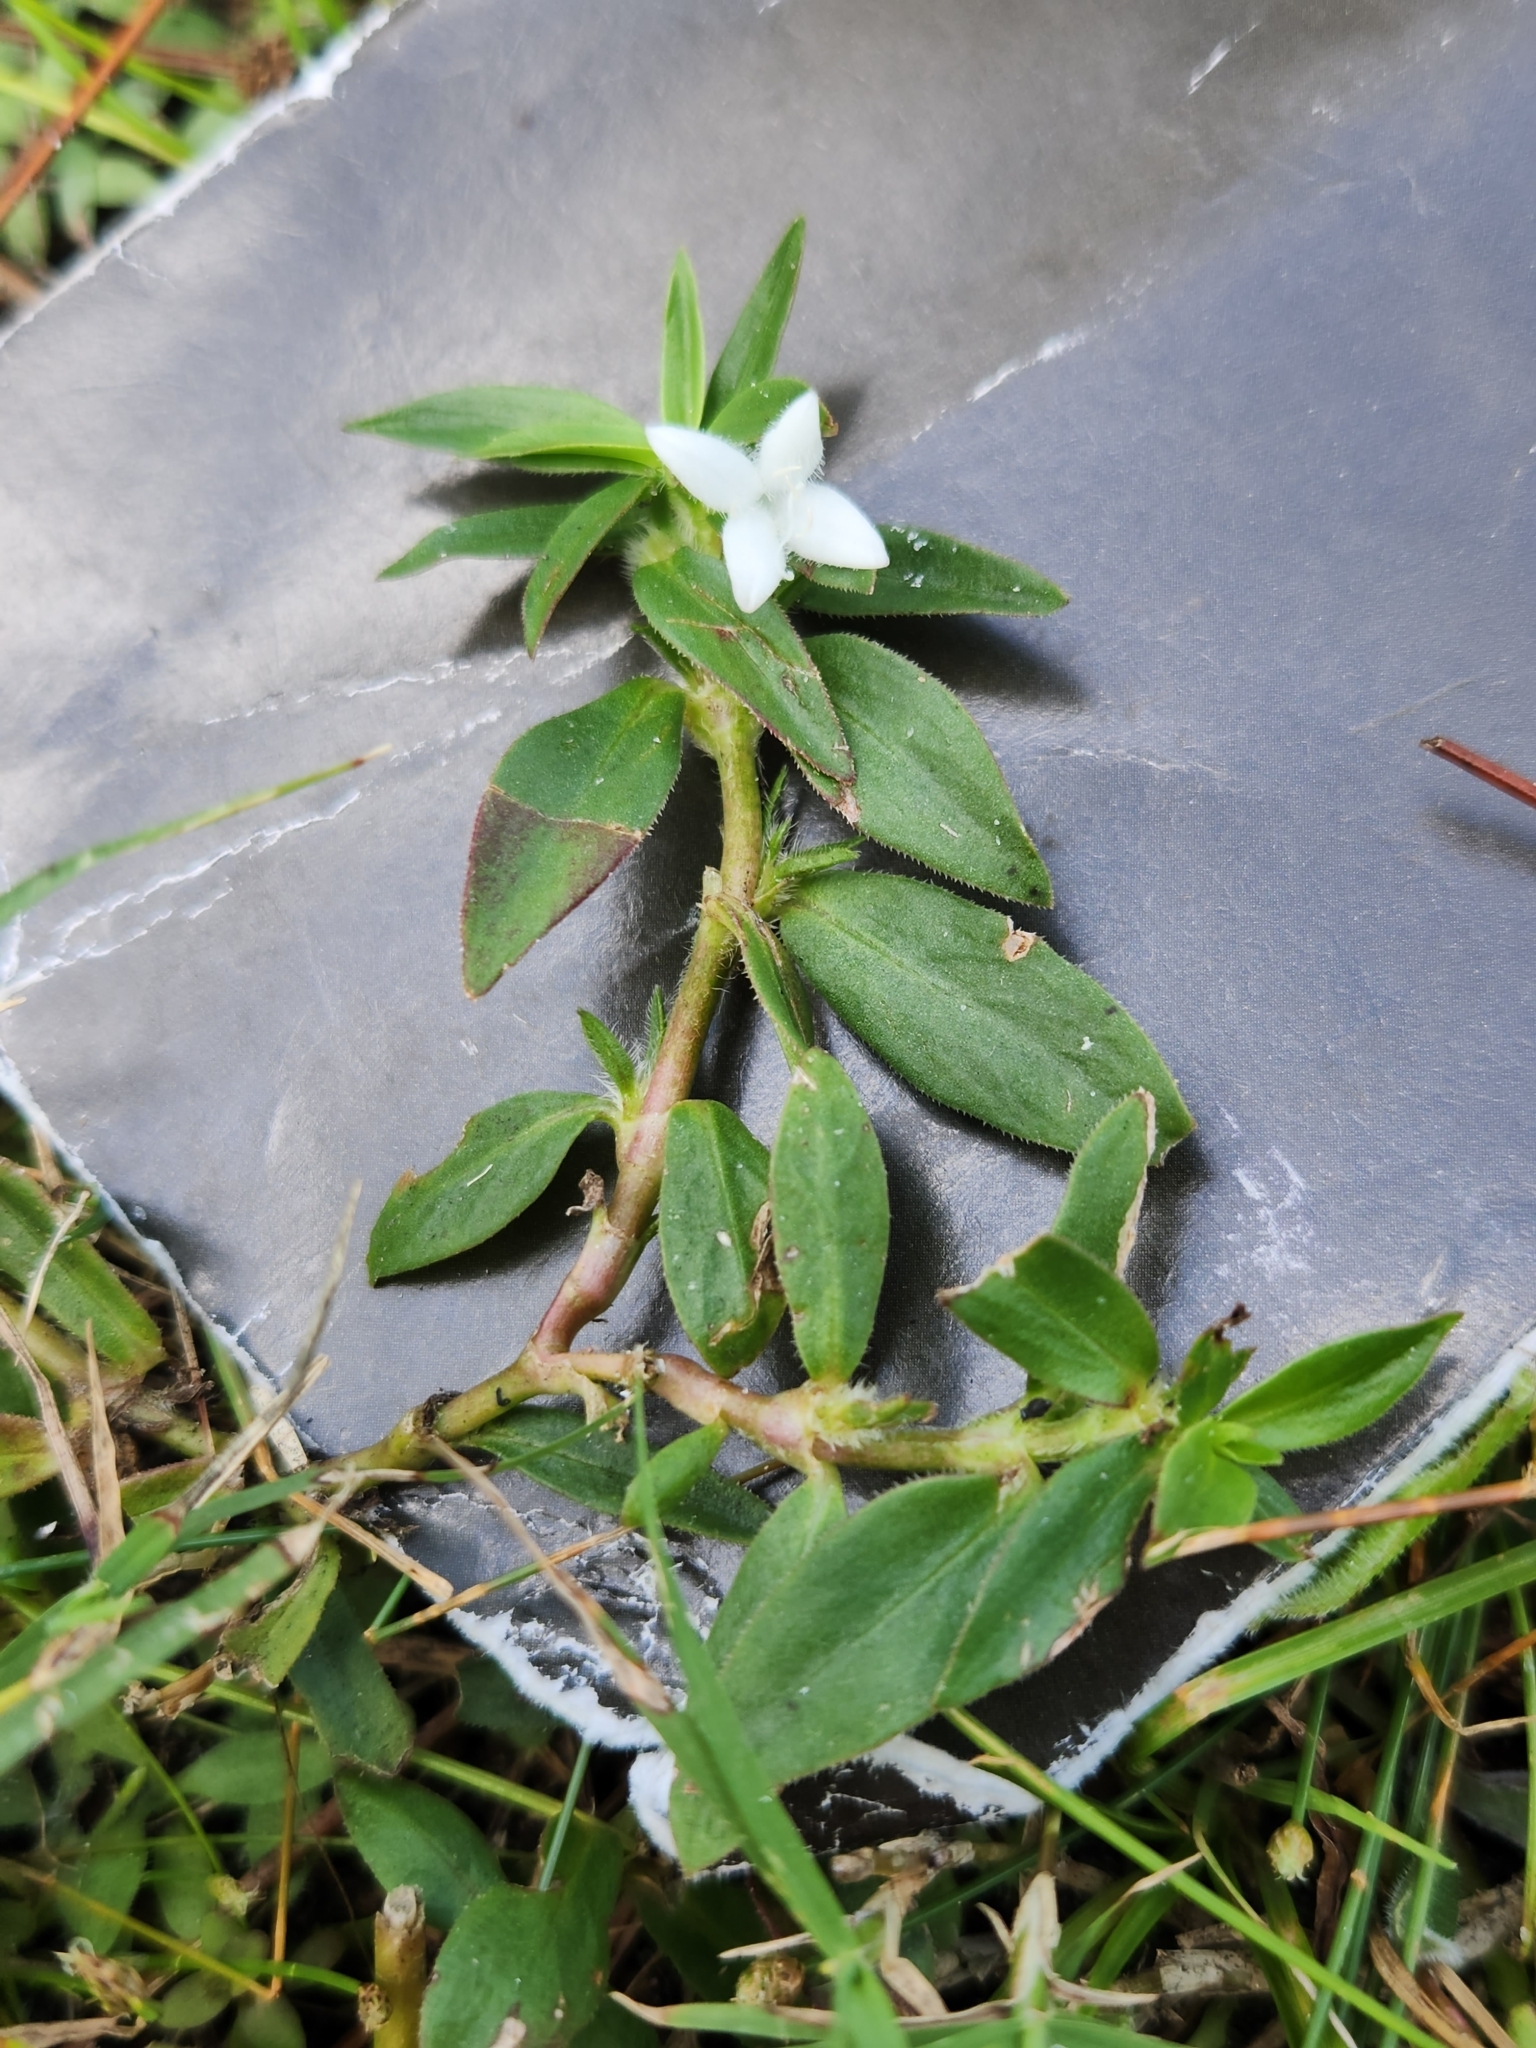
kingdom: Plantae
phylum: Tracheophyta
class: Magnoliopsida
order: Gentianales
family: Rubiaceae
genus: Diodia
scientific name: Diodia virginiana
